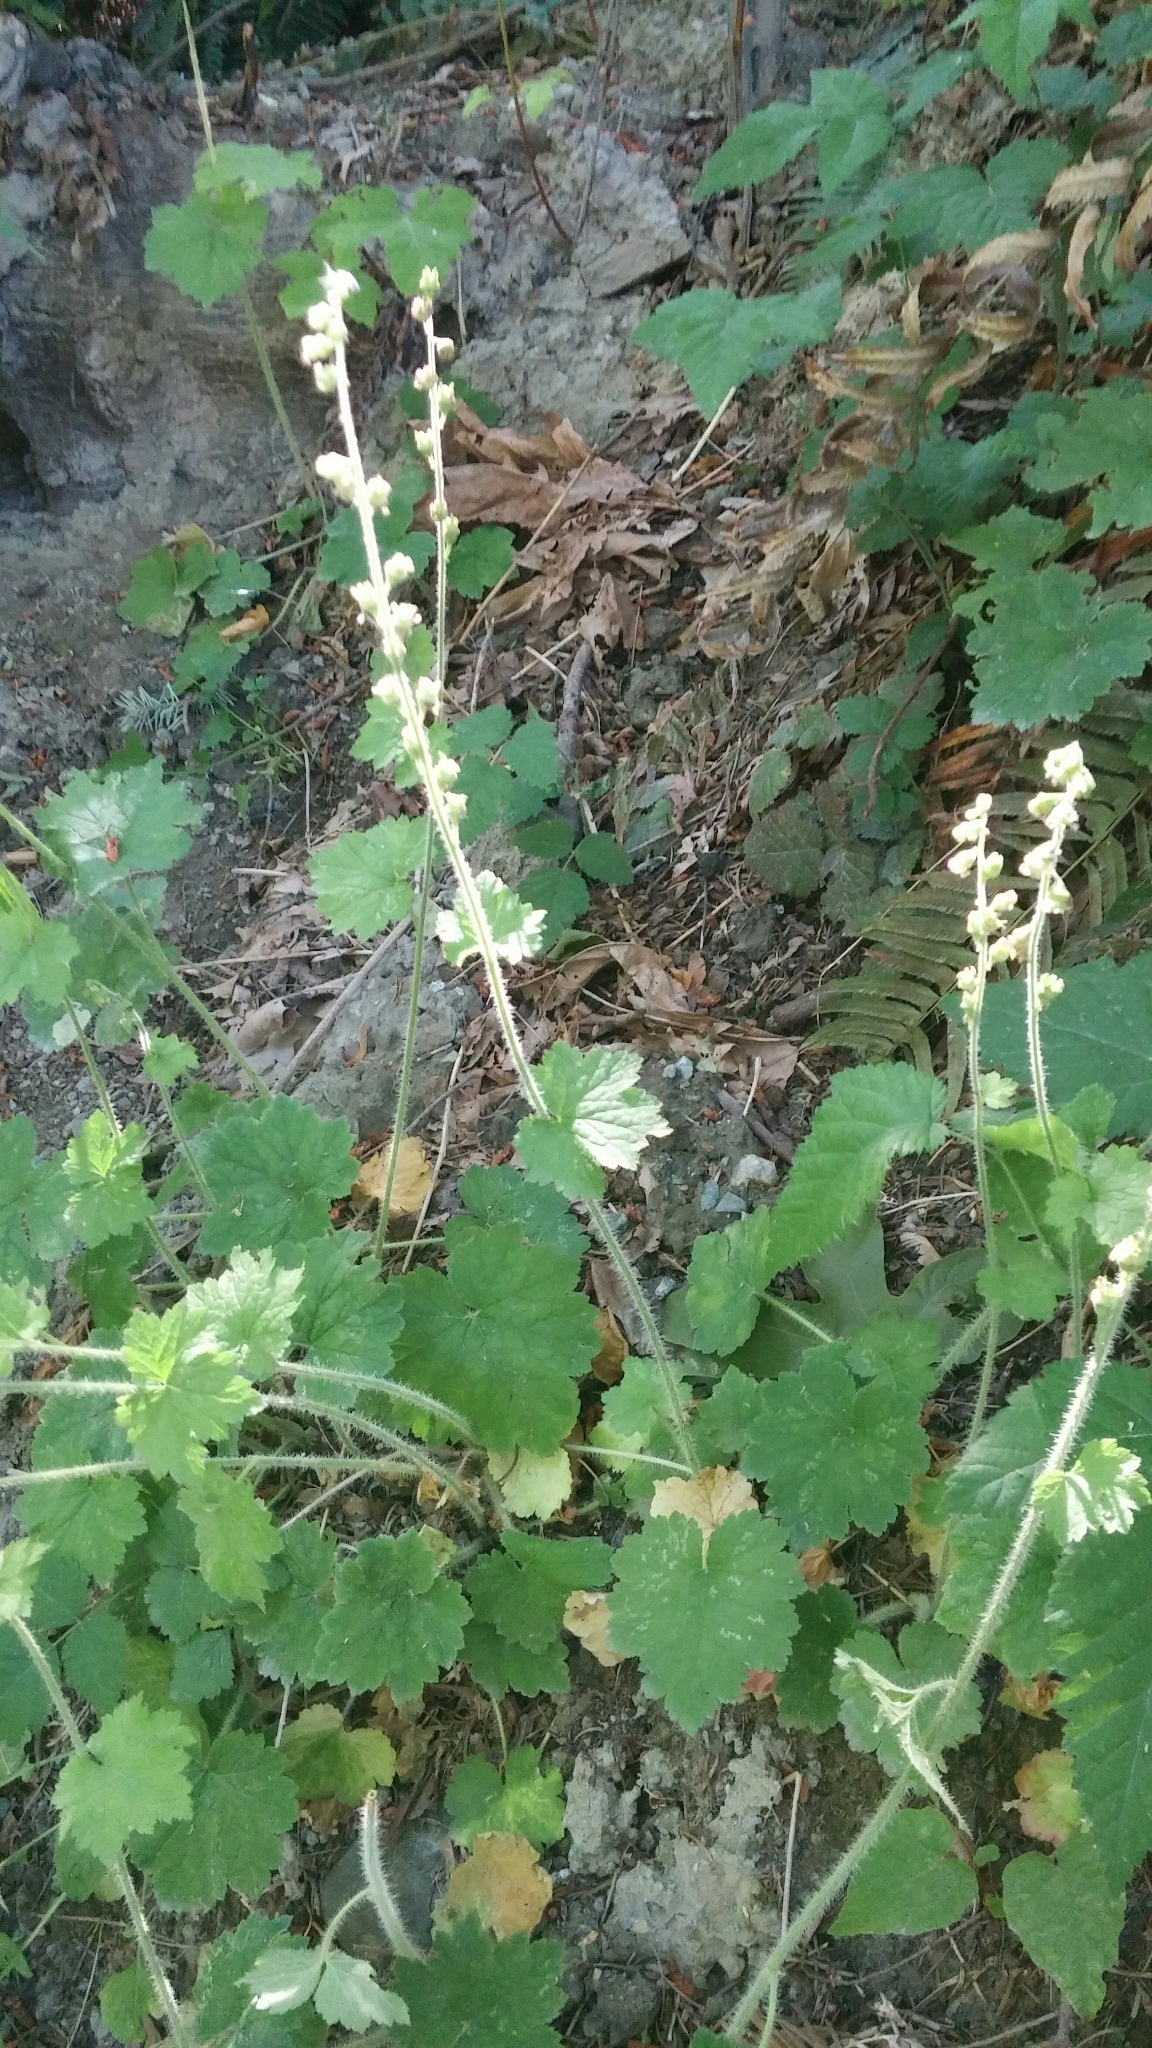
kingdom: Plantae
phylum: Tracheophyta
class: Magnoliopsida
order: Saxifragales
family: Saxifragaceae
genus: Tellima
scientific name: Tellima grandiflora
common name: Fringecups
